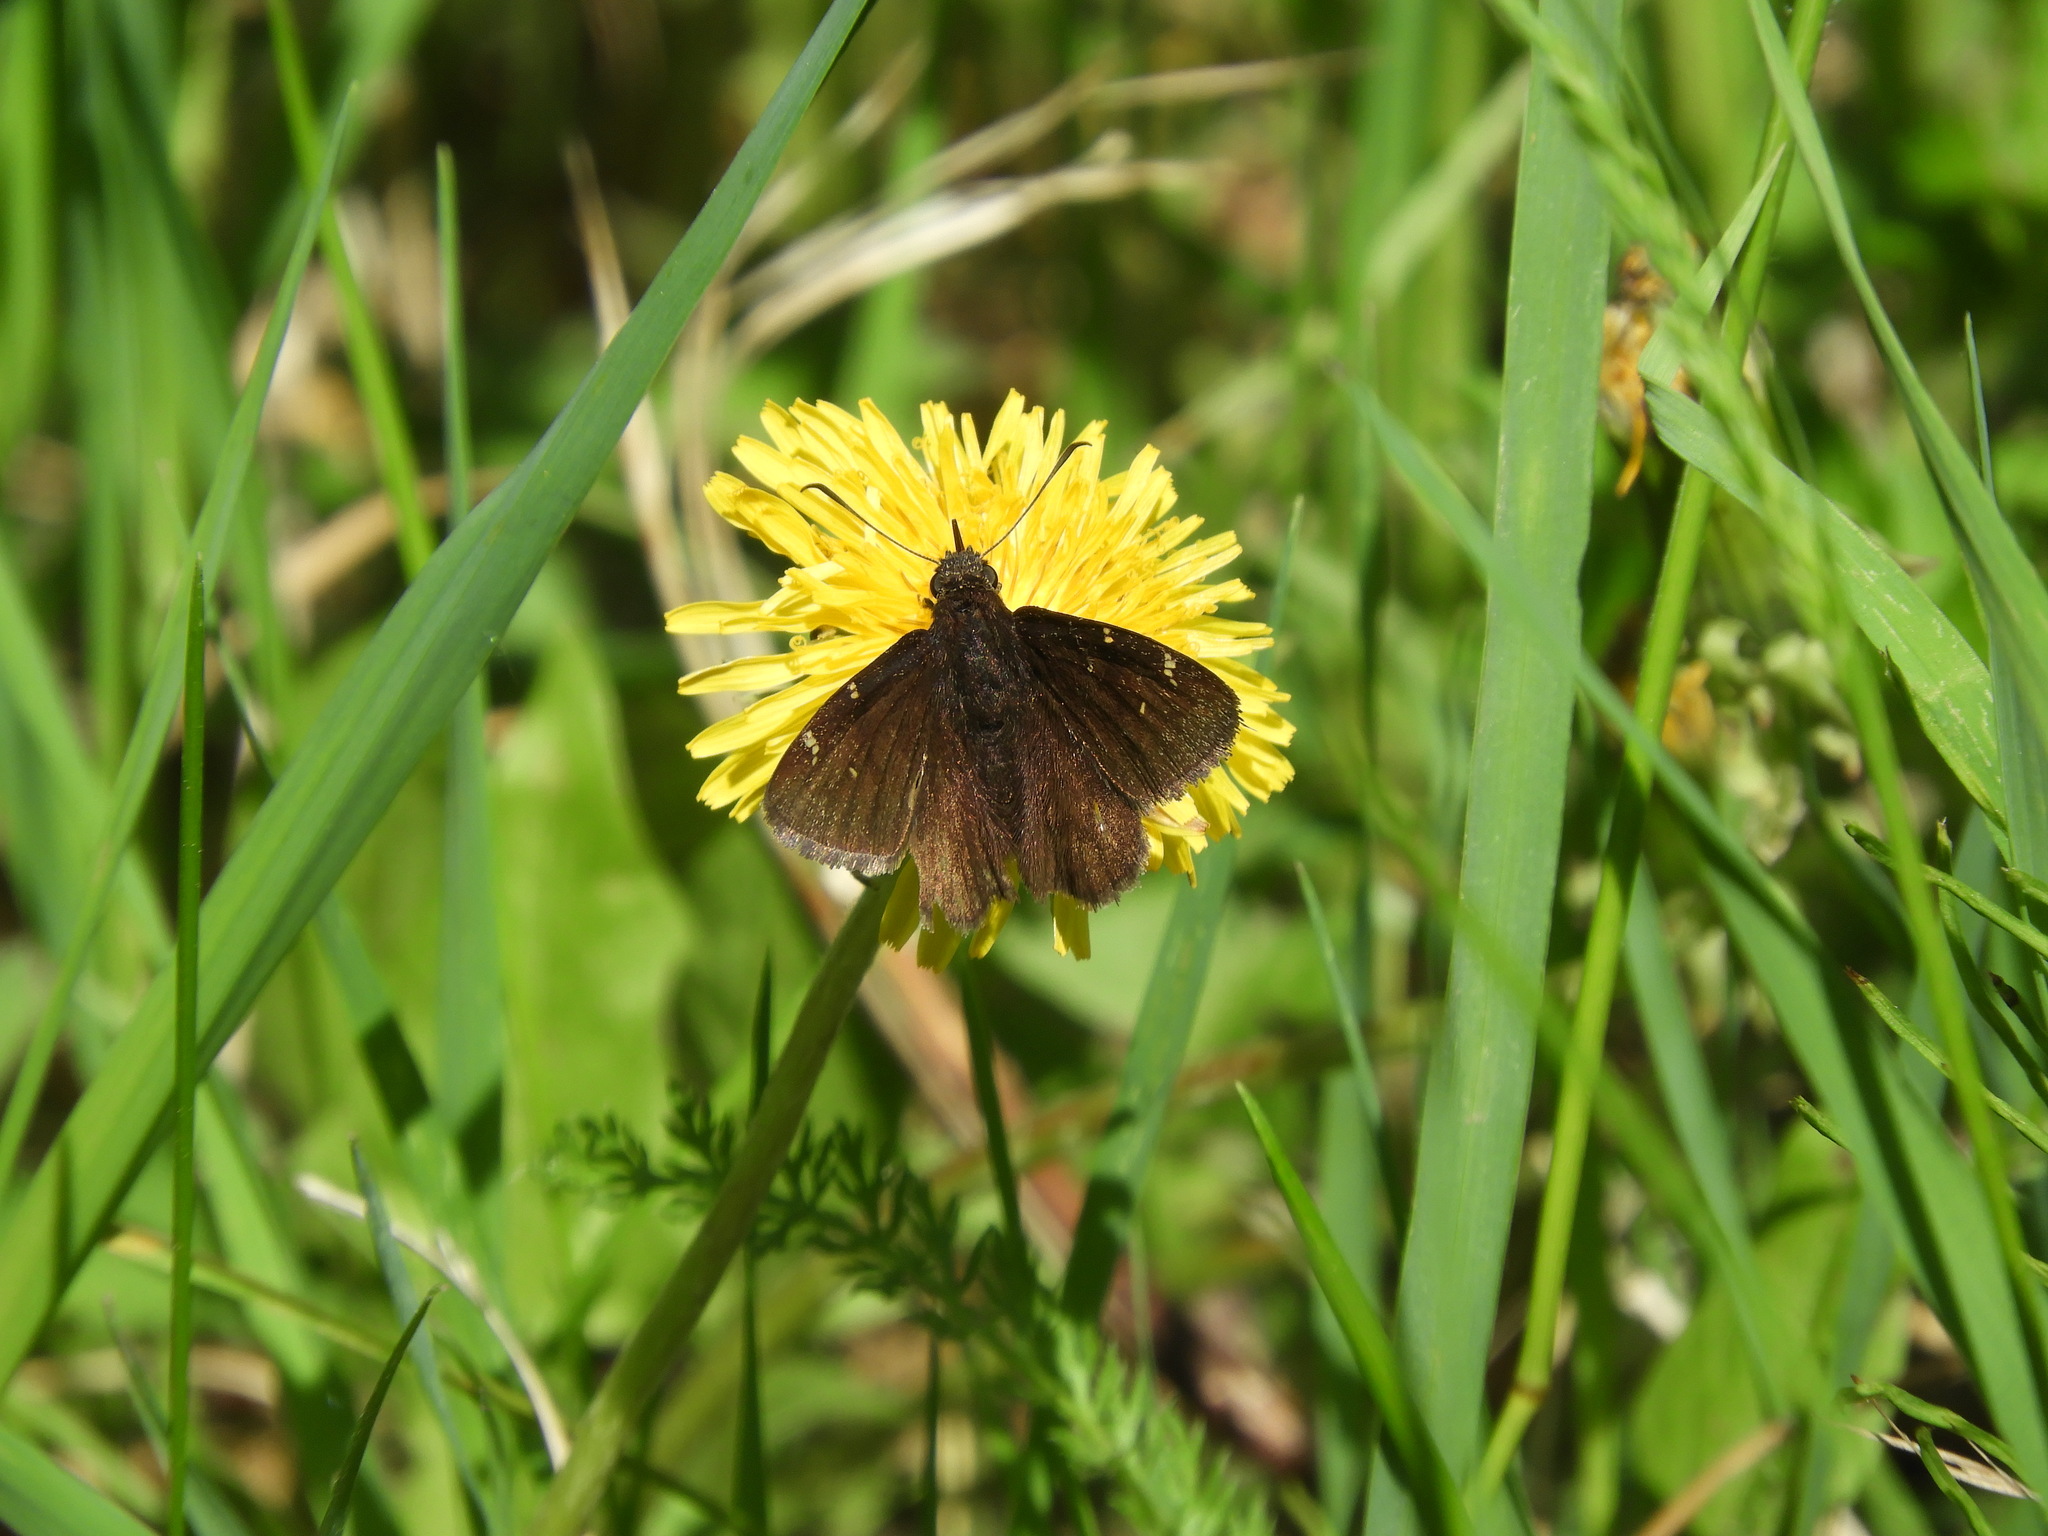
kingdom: Animalia
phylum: Arthropoda
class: Insecta
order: Lepidoptera
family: Hesperiidae
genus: Thorybes
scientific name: Thorybes pylades
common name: Northern cloudywing
